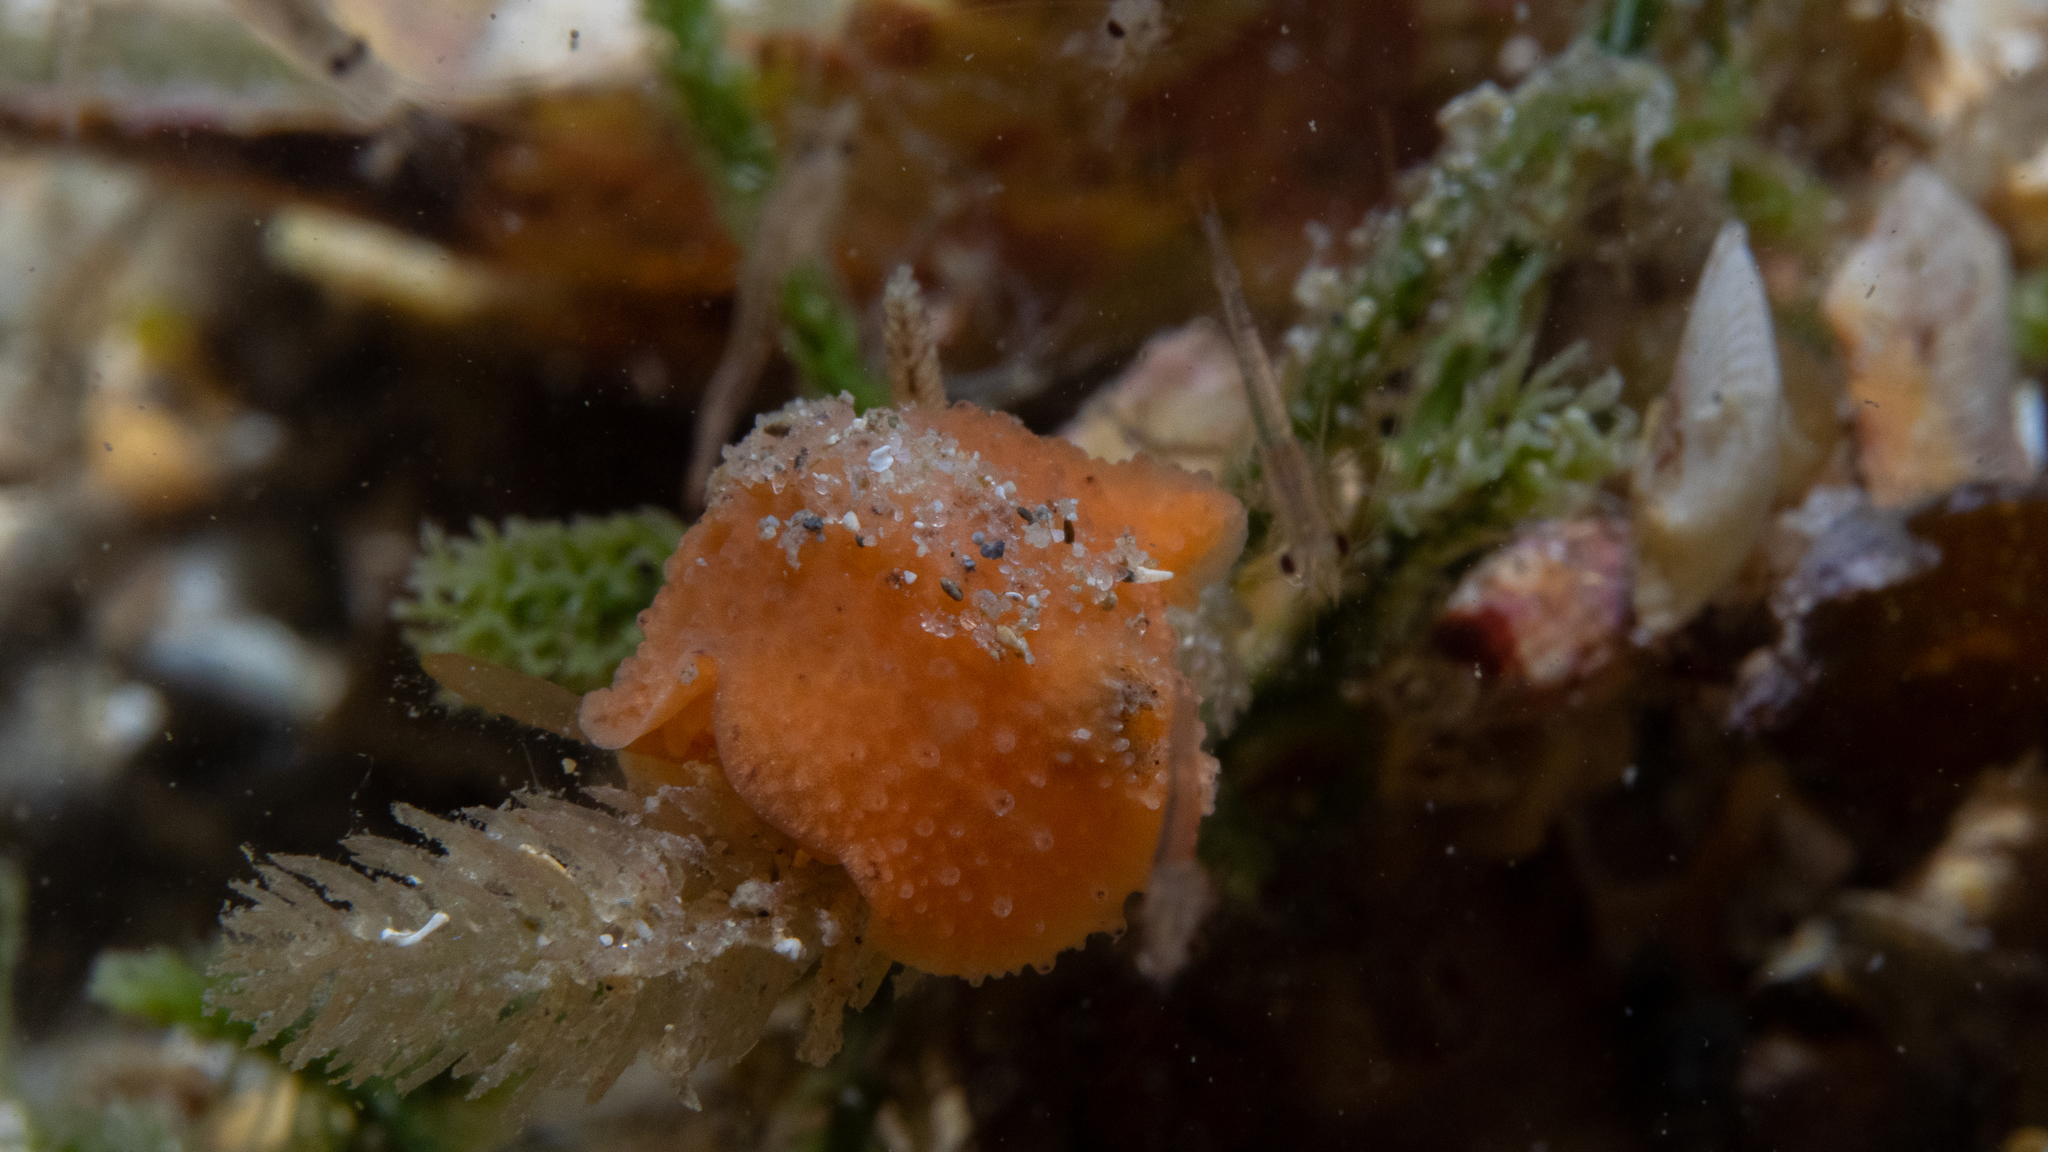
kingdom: Animalia
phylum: Mollusca
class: Gastropoda
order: Nudibranchia
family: Dorididae
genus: Doris
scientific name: Doris cameroni
